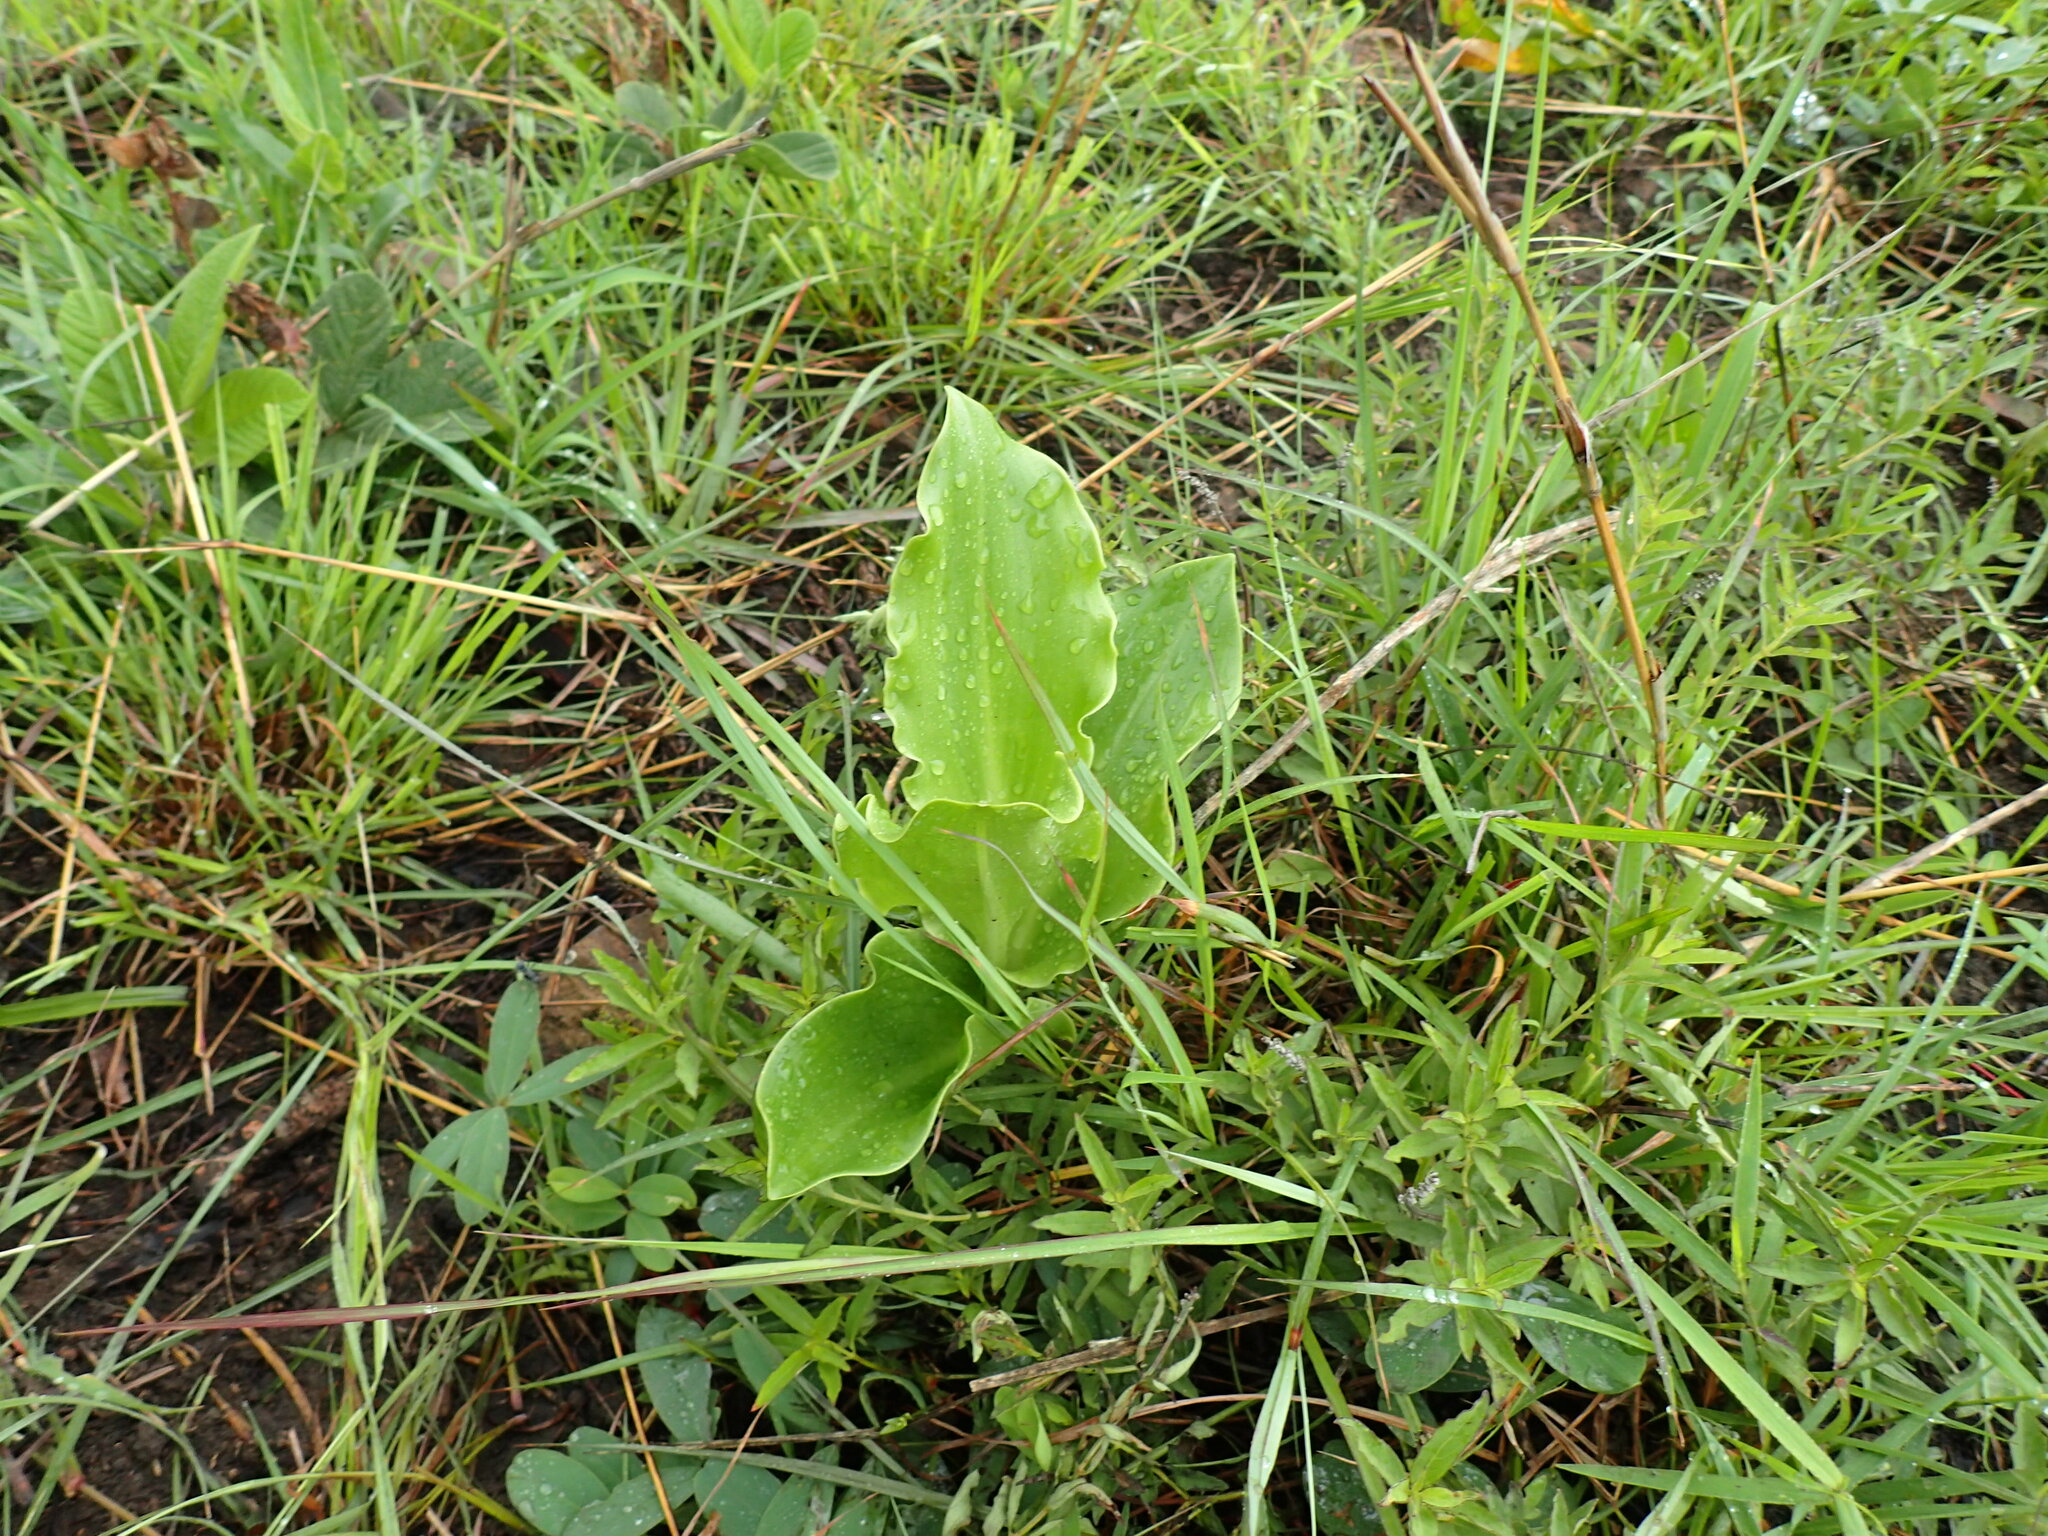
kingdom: Plantae
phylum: Tracheophyta
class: Liliopsida
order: Asparagales
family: Amaryllidaceae
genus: Scadoxus
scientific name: Scadoxus puniceus
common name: Royal-paintbrush
